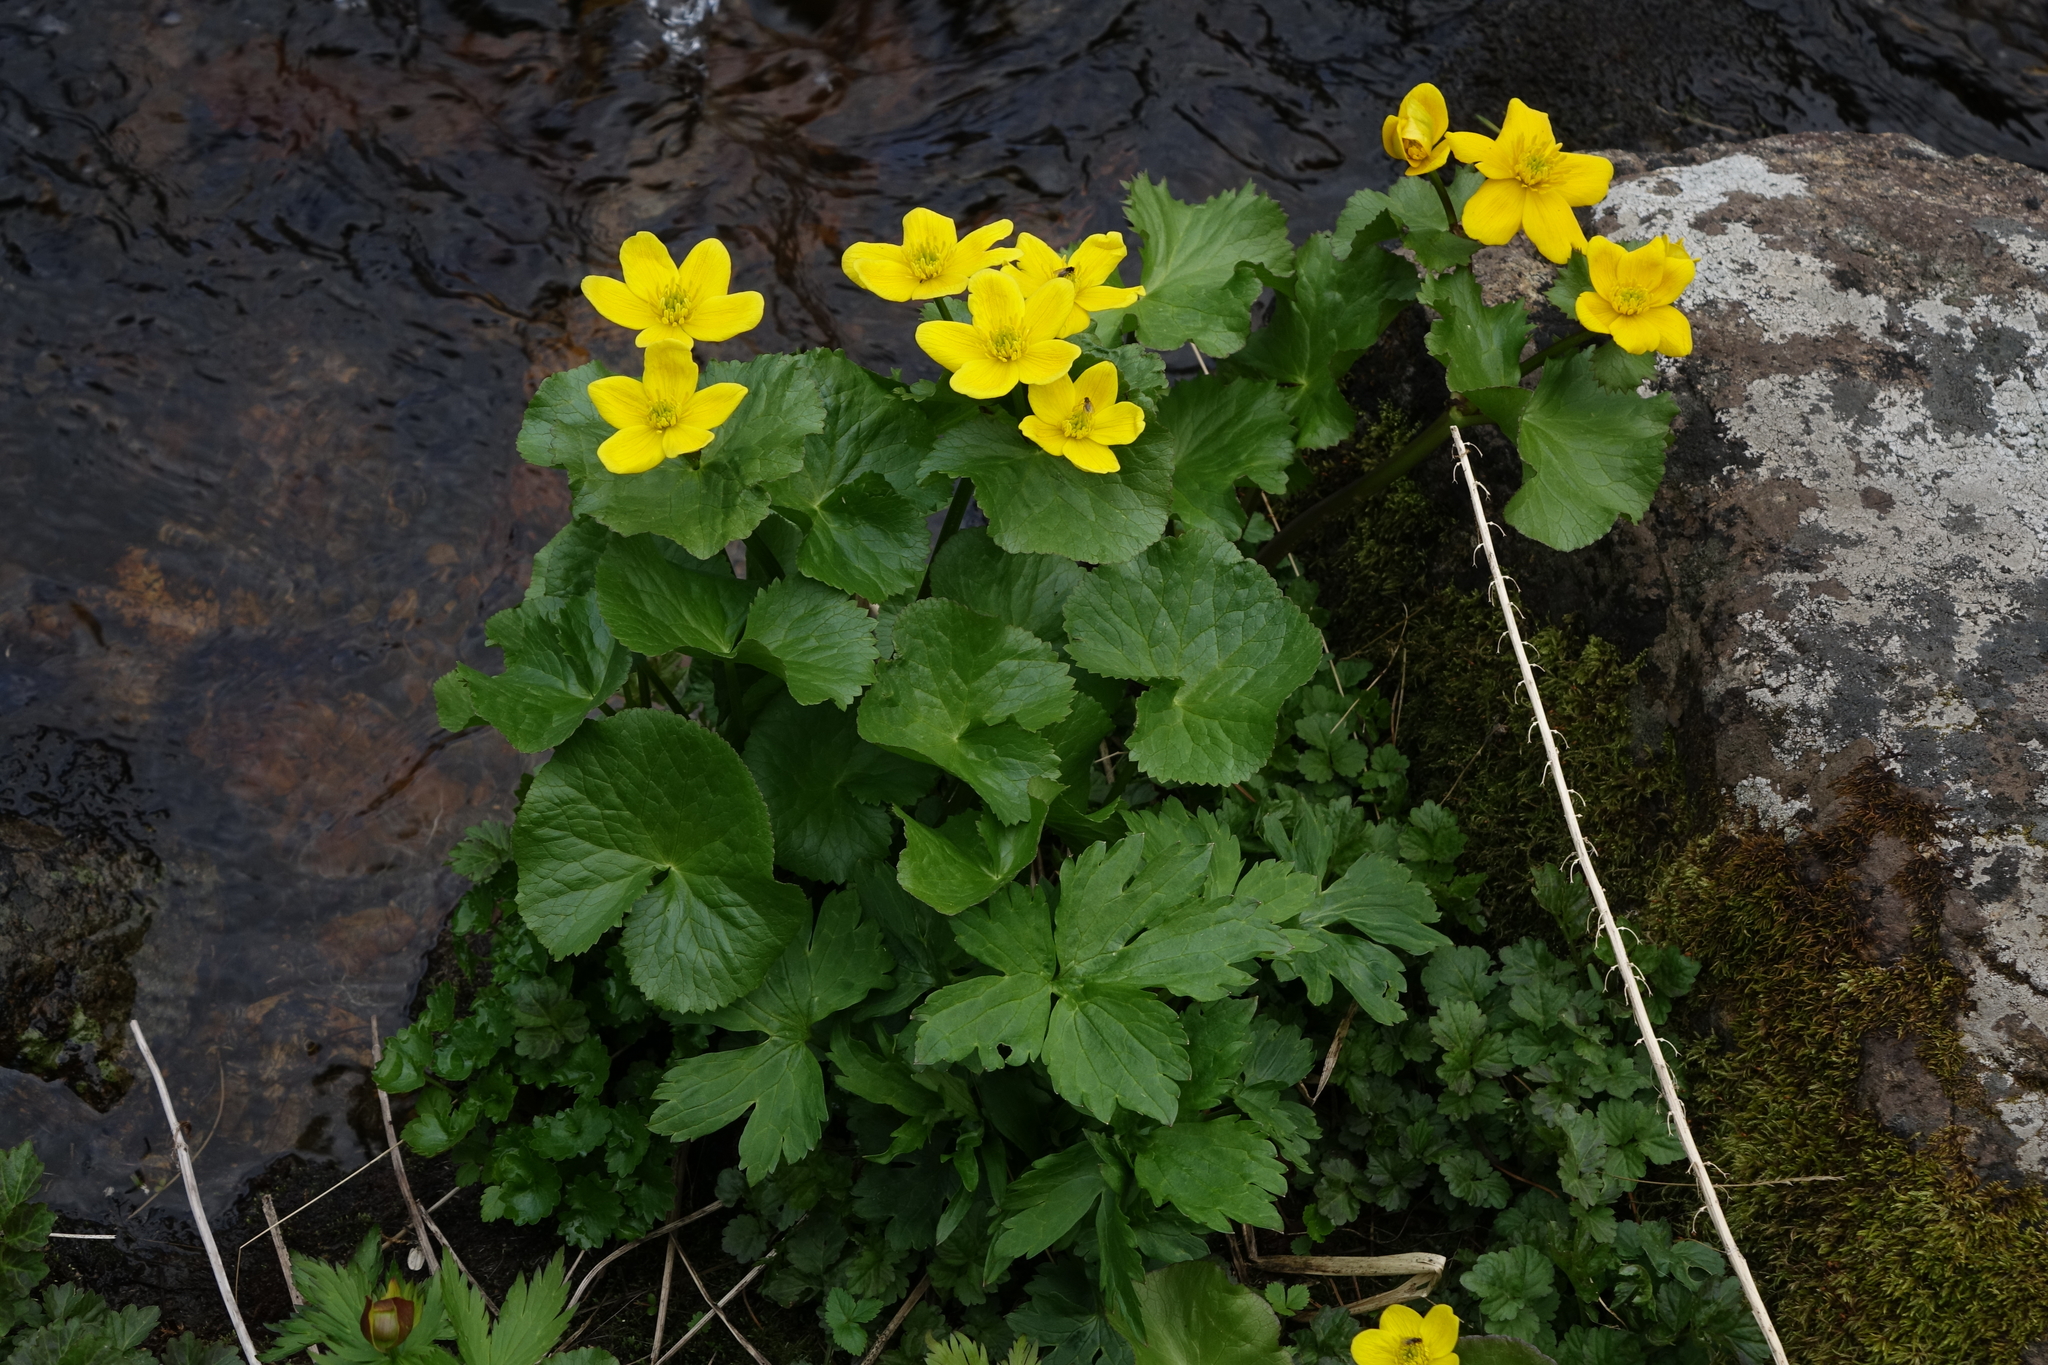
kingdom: Plantae
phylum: Tracheophyta
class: Magnoliopsida
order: Ranunculales
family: Ranunculaceae
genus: Caltha
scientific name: Caltha palustris
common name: Marsh marigold
